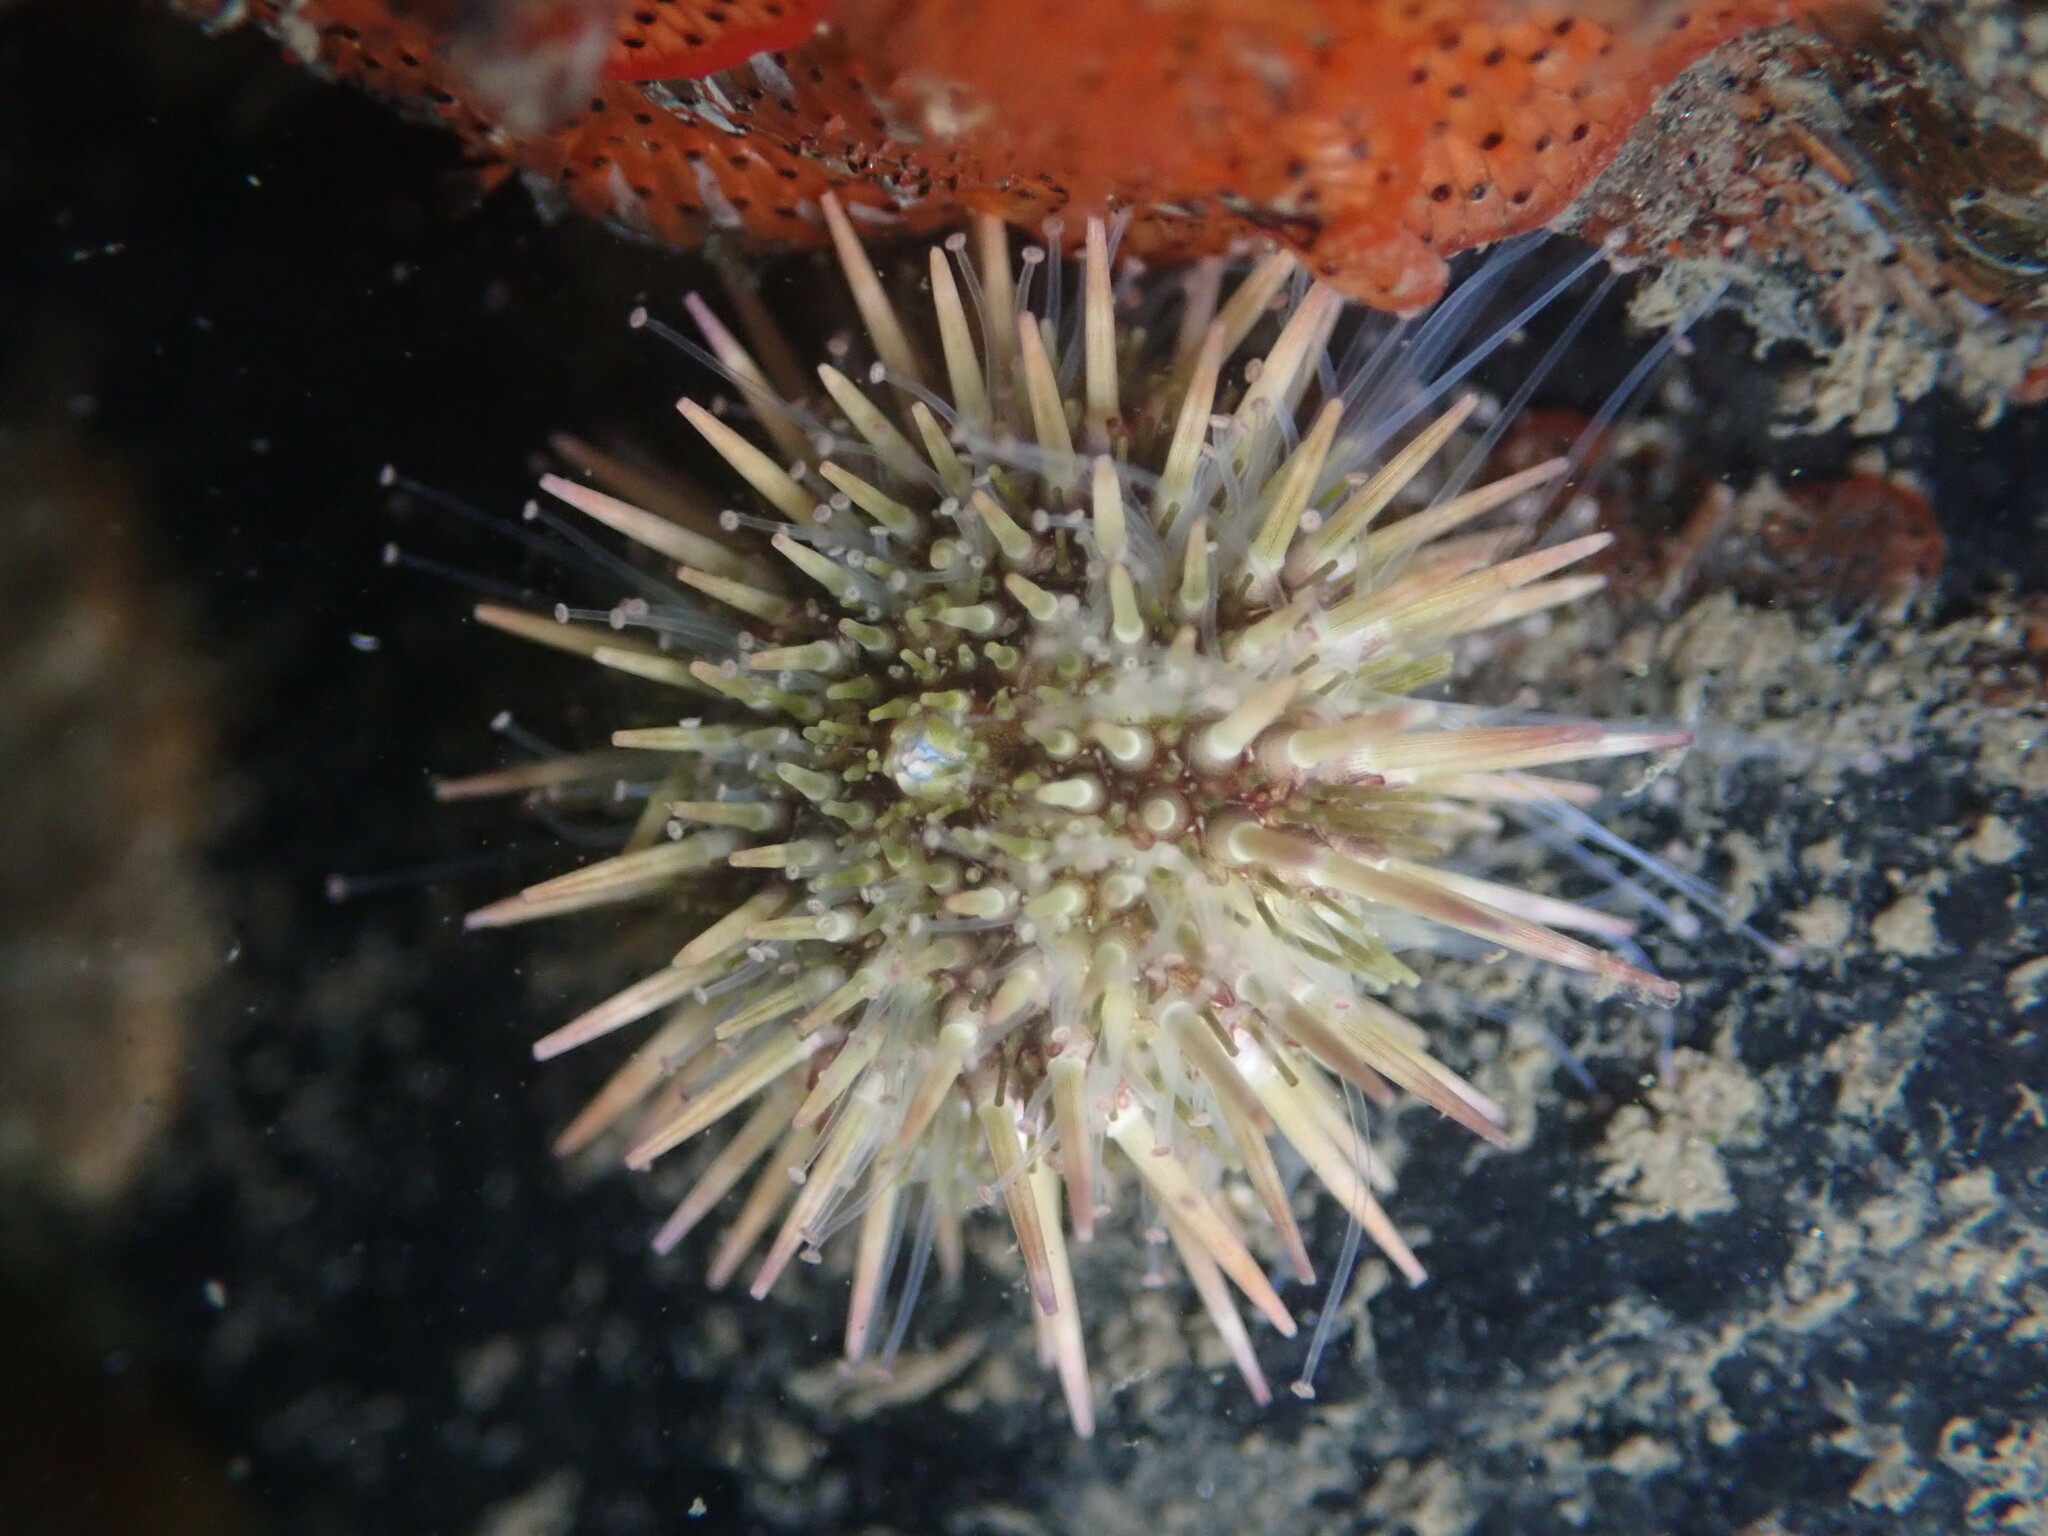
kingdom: Animalia
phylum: Echinodermata
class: Echinoidea
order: Camarodonta
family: Strongylocentrotidae
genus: Strongylocentrotus
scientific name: Strongylocentrotus purpuratus
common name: Purple sea urchin
